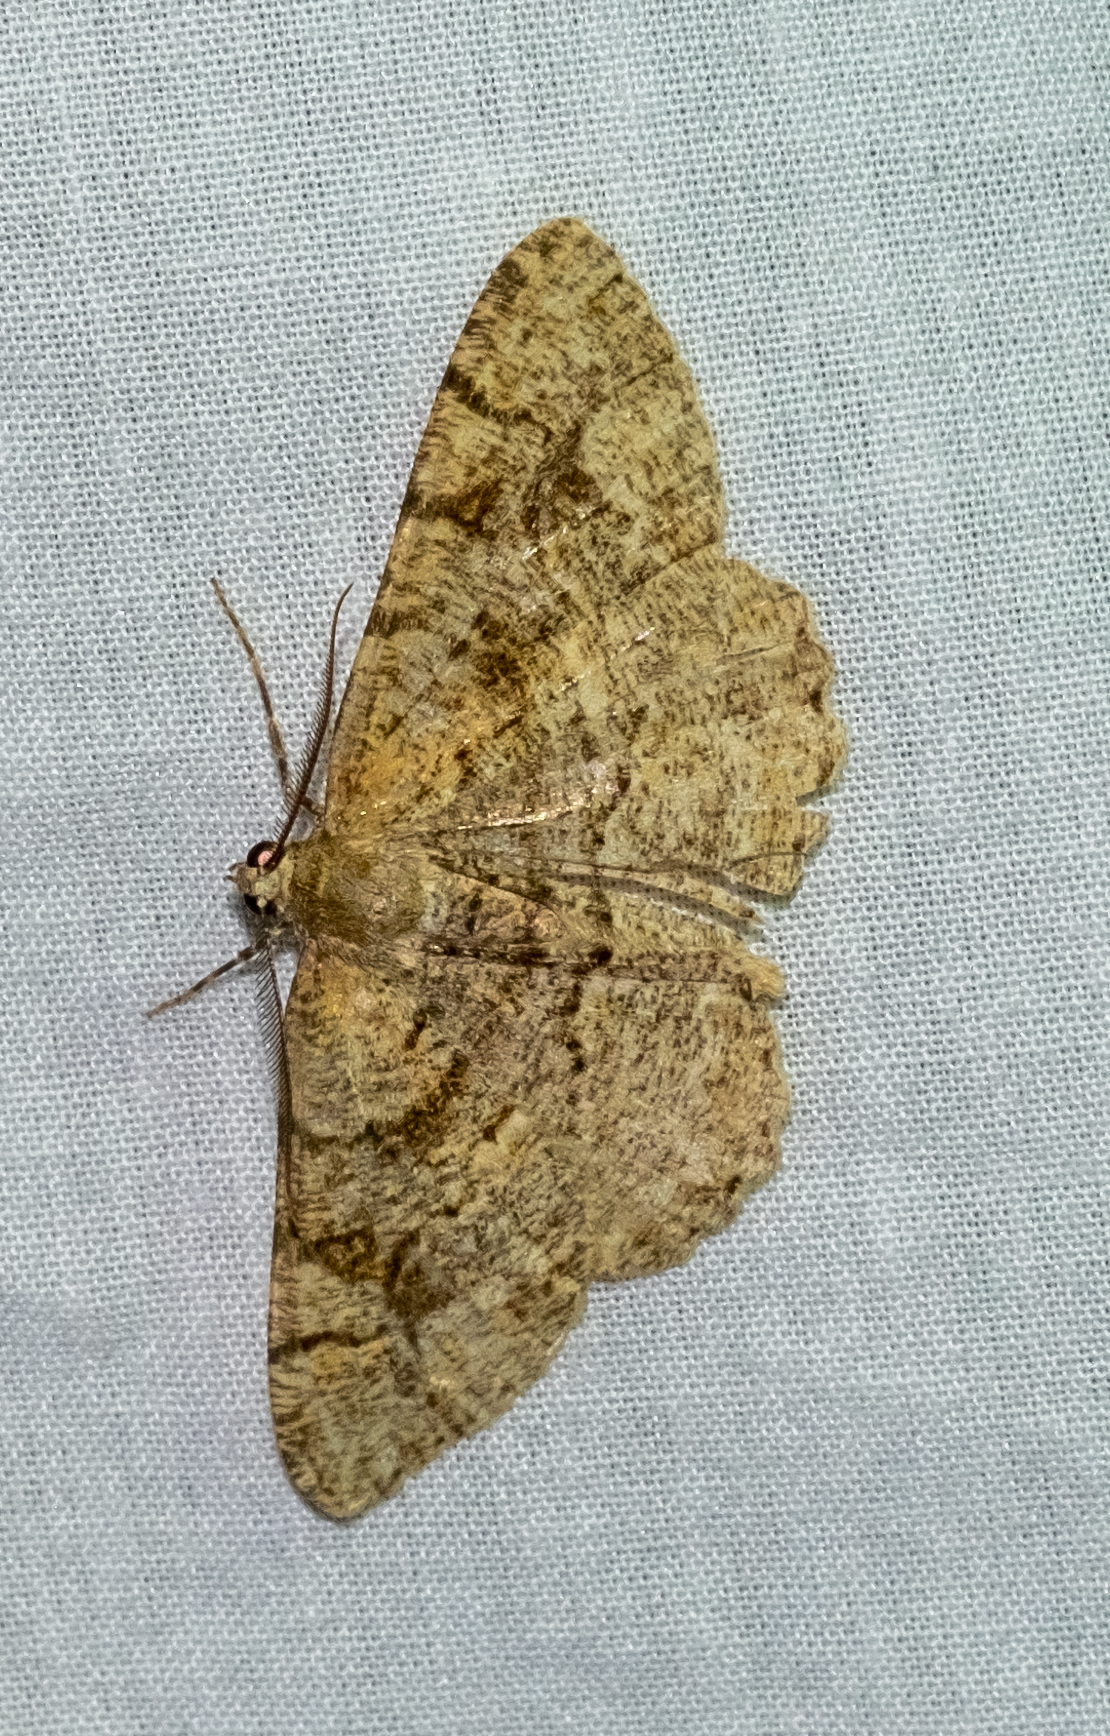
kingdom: Animalia
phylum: Arthropoda
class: Insecta
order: Lepidoptera
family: Geometridae
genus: Alcis
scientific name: Alcis repandata
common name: Mottled beauty
